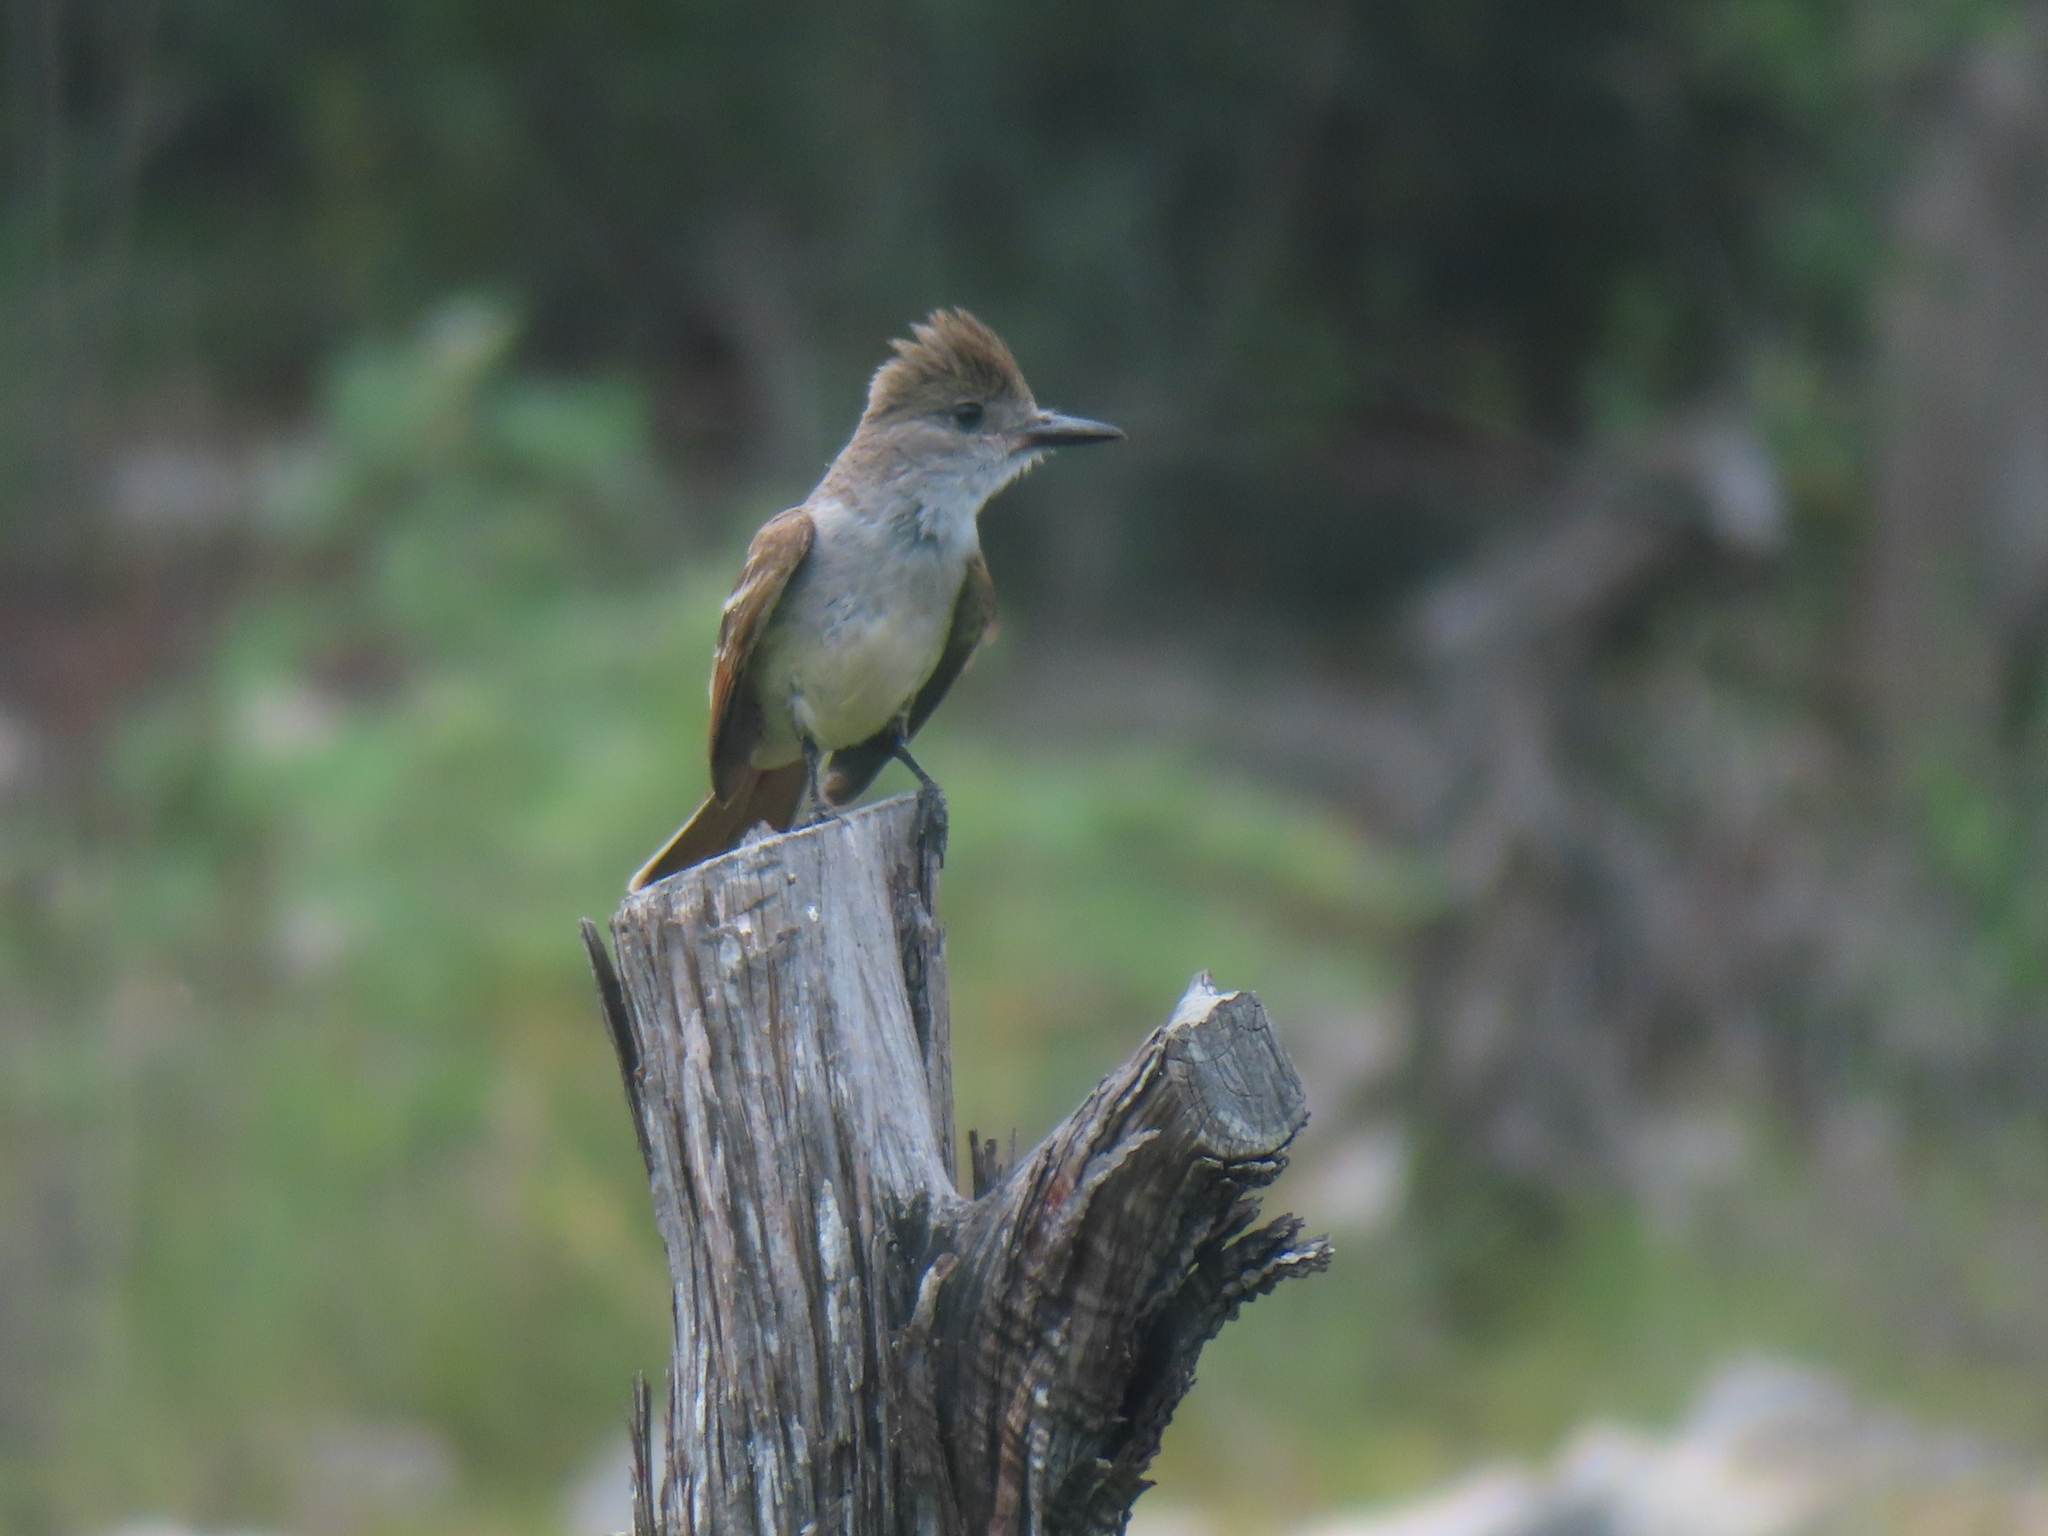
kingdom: Animalia
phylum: Chordata
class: Aves
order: Passeriformes
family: Tyrannidae
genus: Myiarchus
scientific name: Myiarchus cinerascens
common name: Ash-throated flycatcher
